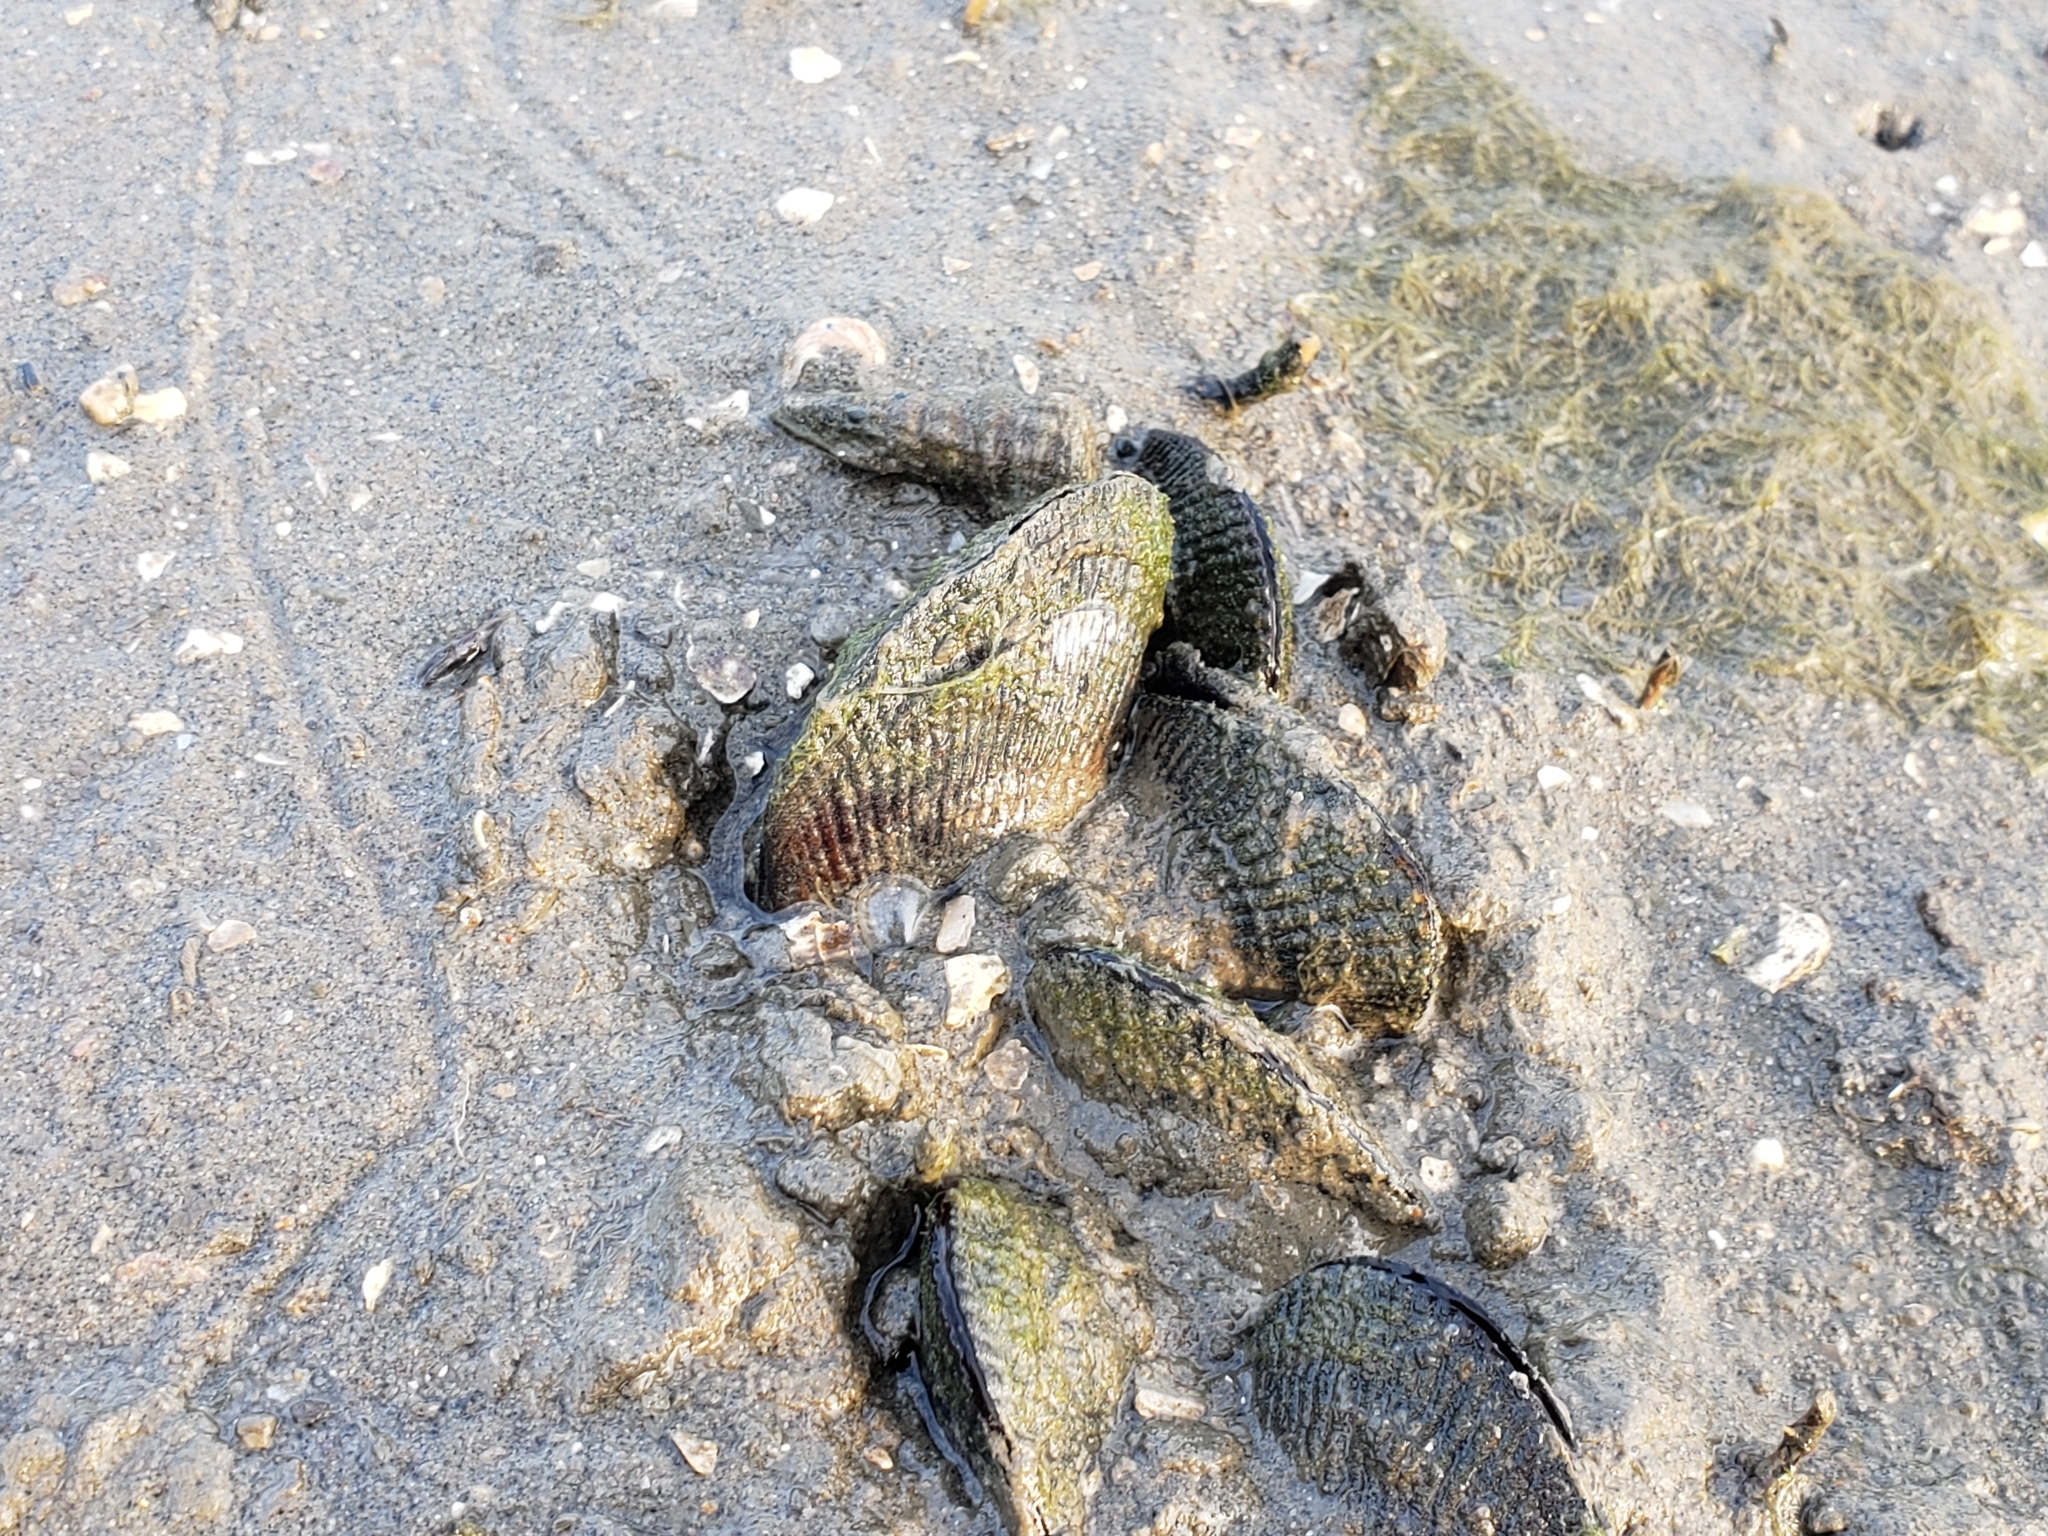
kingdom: Animalia
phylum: Mollusca
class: Bivalvia
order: Mytilida
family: Mytilidae
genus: Geukensia
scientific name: Geukensia demissa
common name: Ribbed mussel
